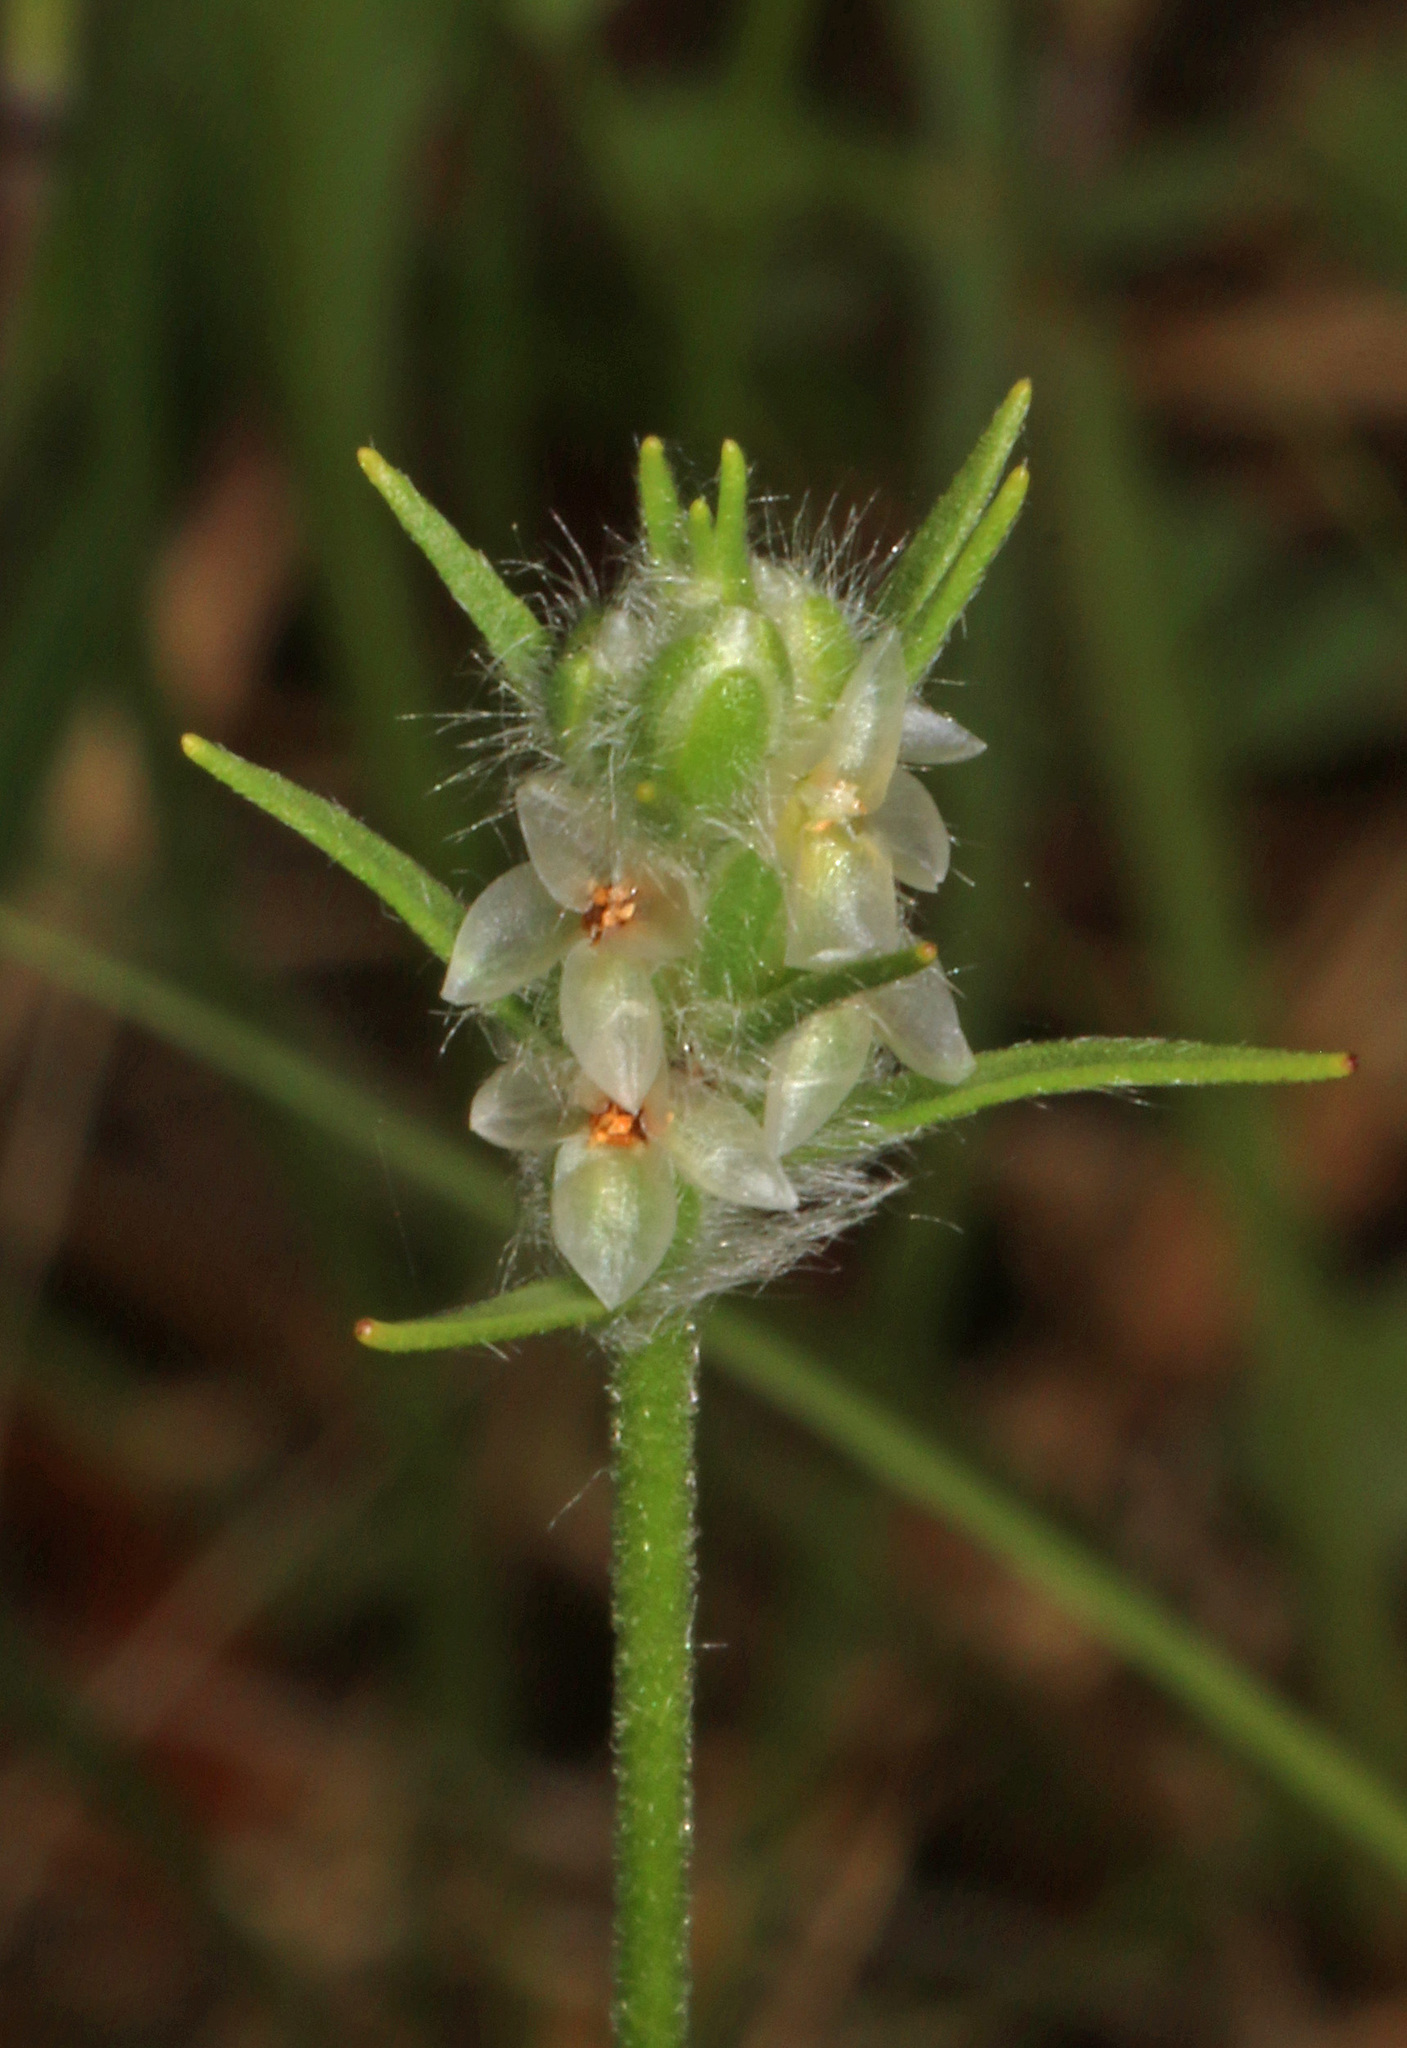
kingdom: Plantae
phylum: Tracheophyta
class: Magnoliopsida
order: Lamiales
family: Plantaginaceae
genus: Plantago
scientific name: Plantago aristata
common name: Bracted plantain
